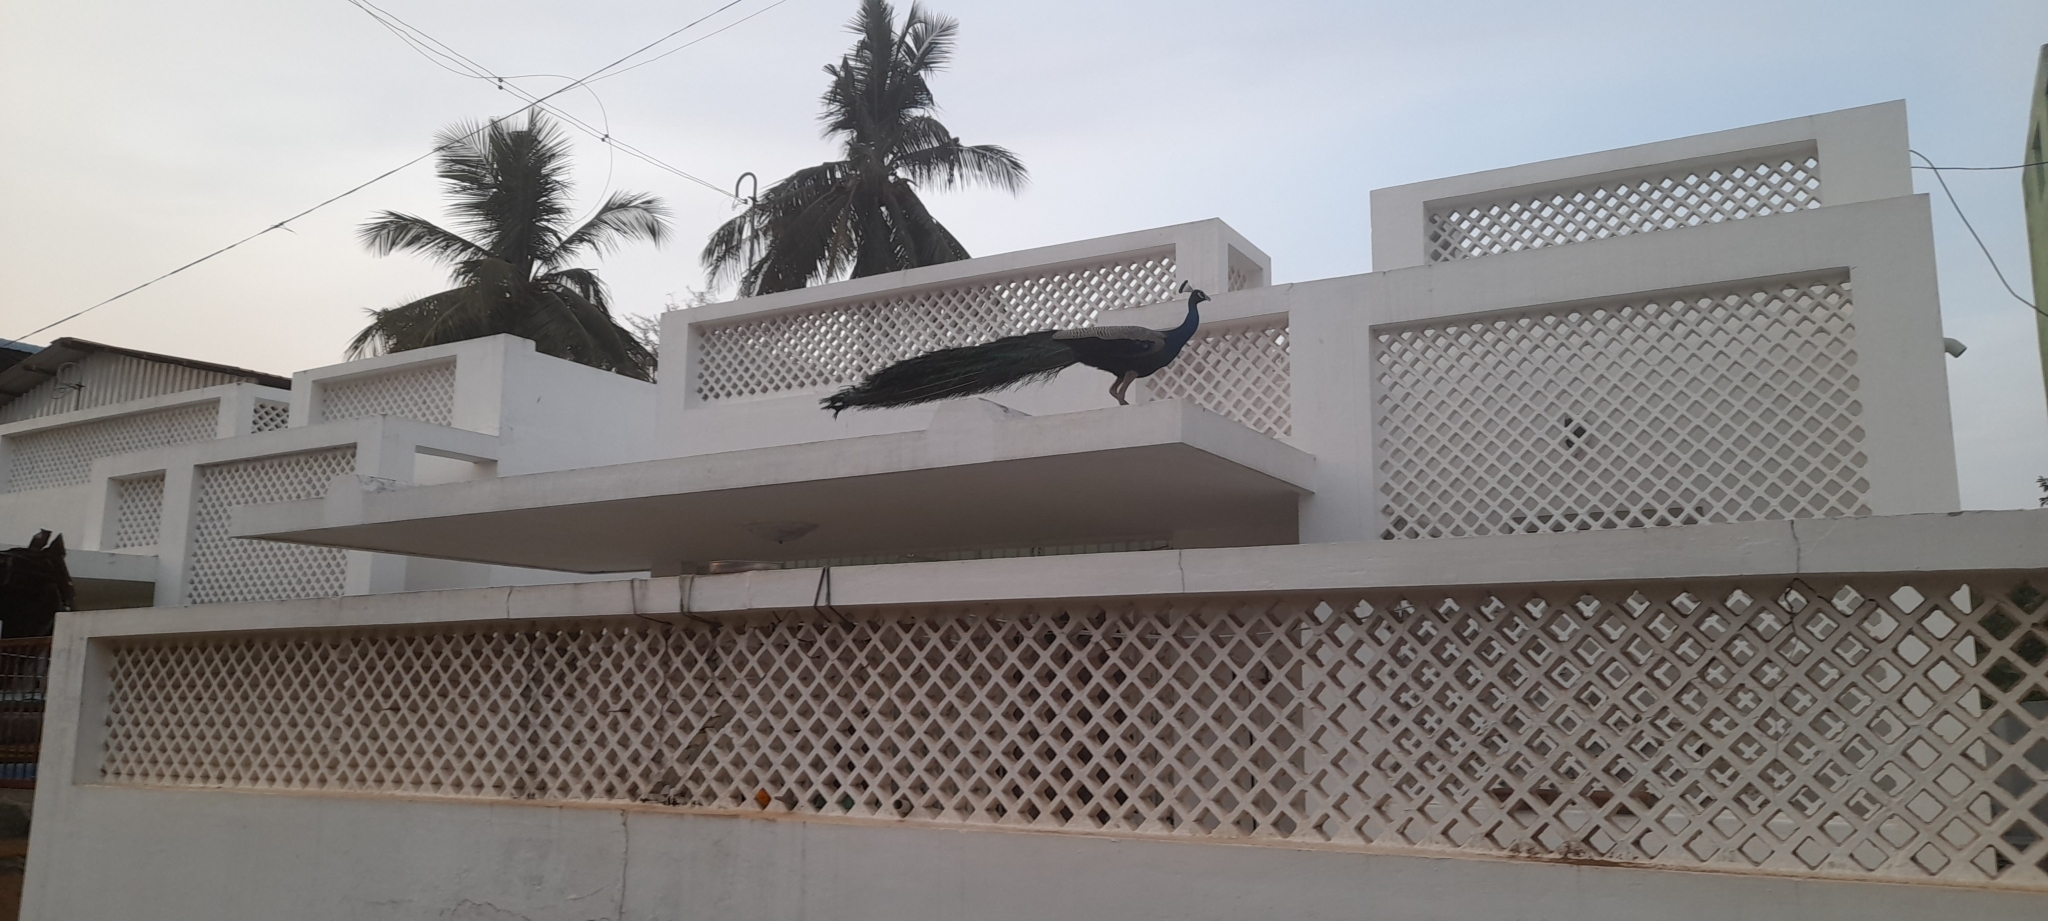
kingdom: Animalia
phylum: Chordata
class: Aves
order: Galliformes
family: Phasianidae
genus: Pavo
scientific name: Pavo cristatus
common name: Indian peafowl
